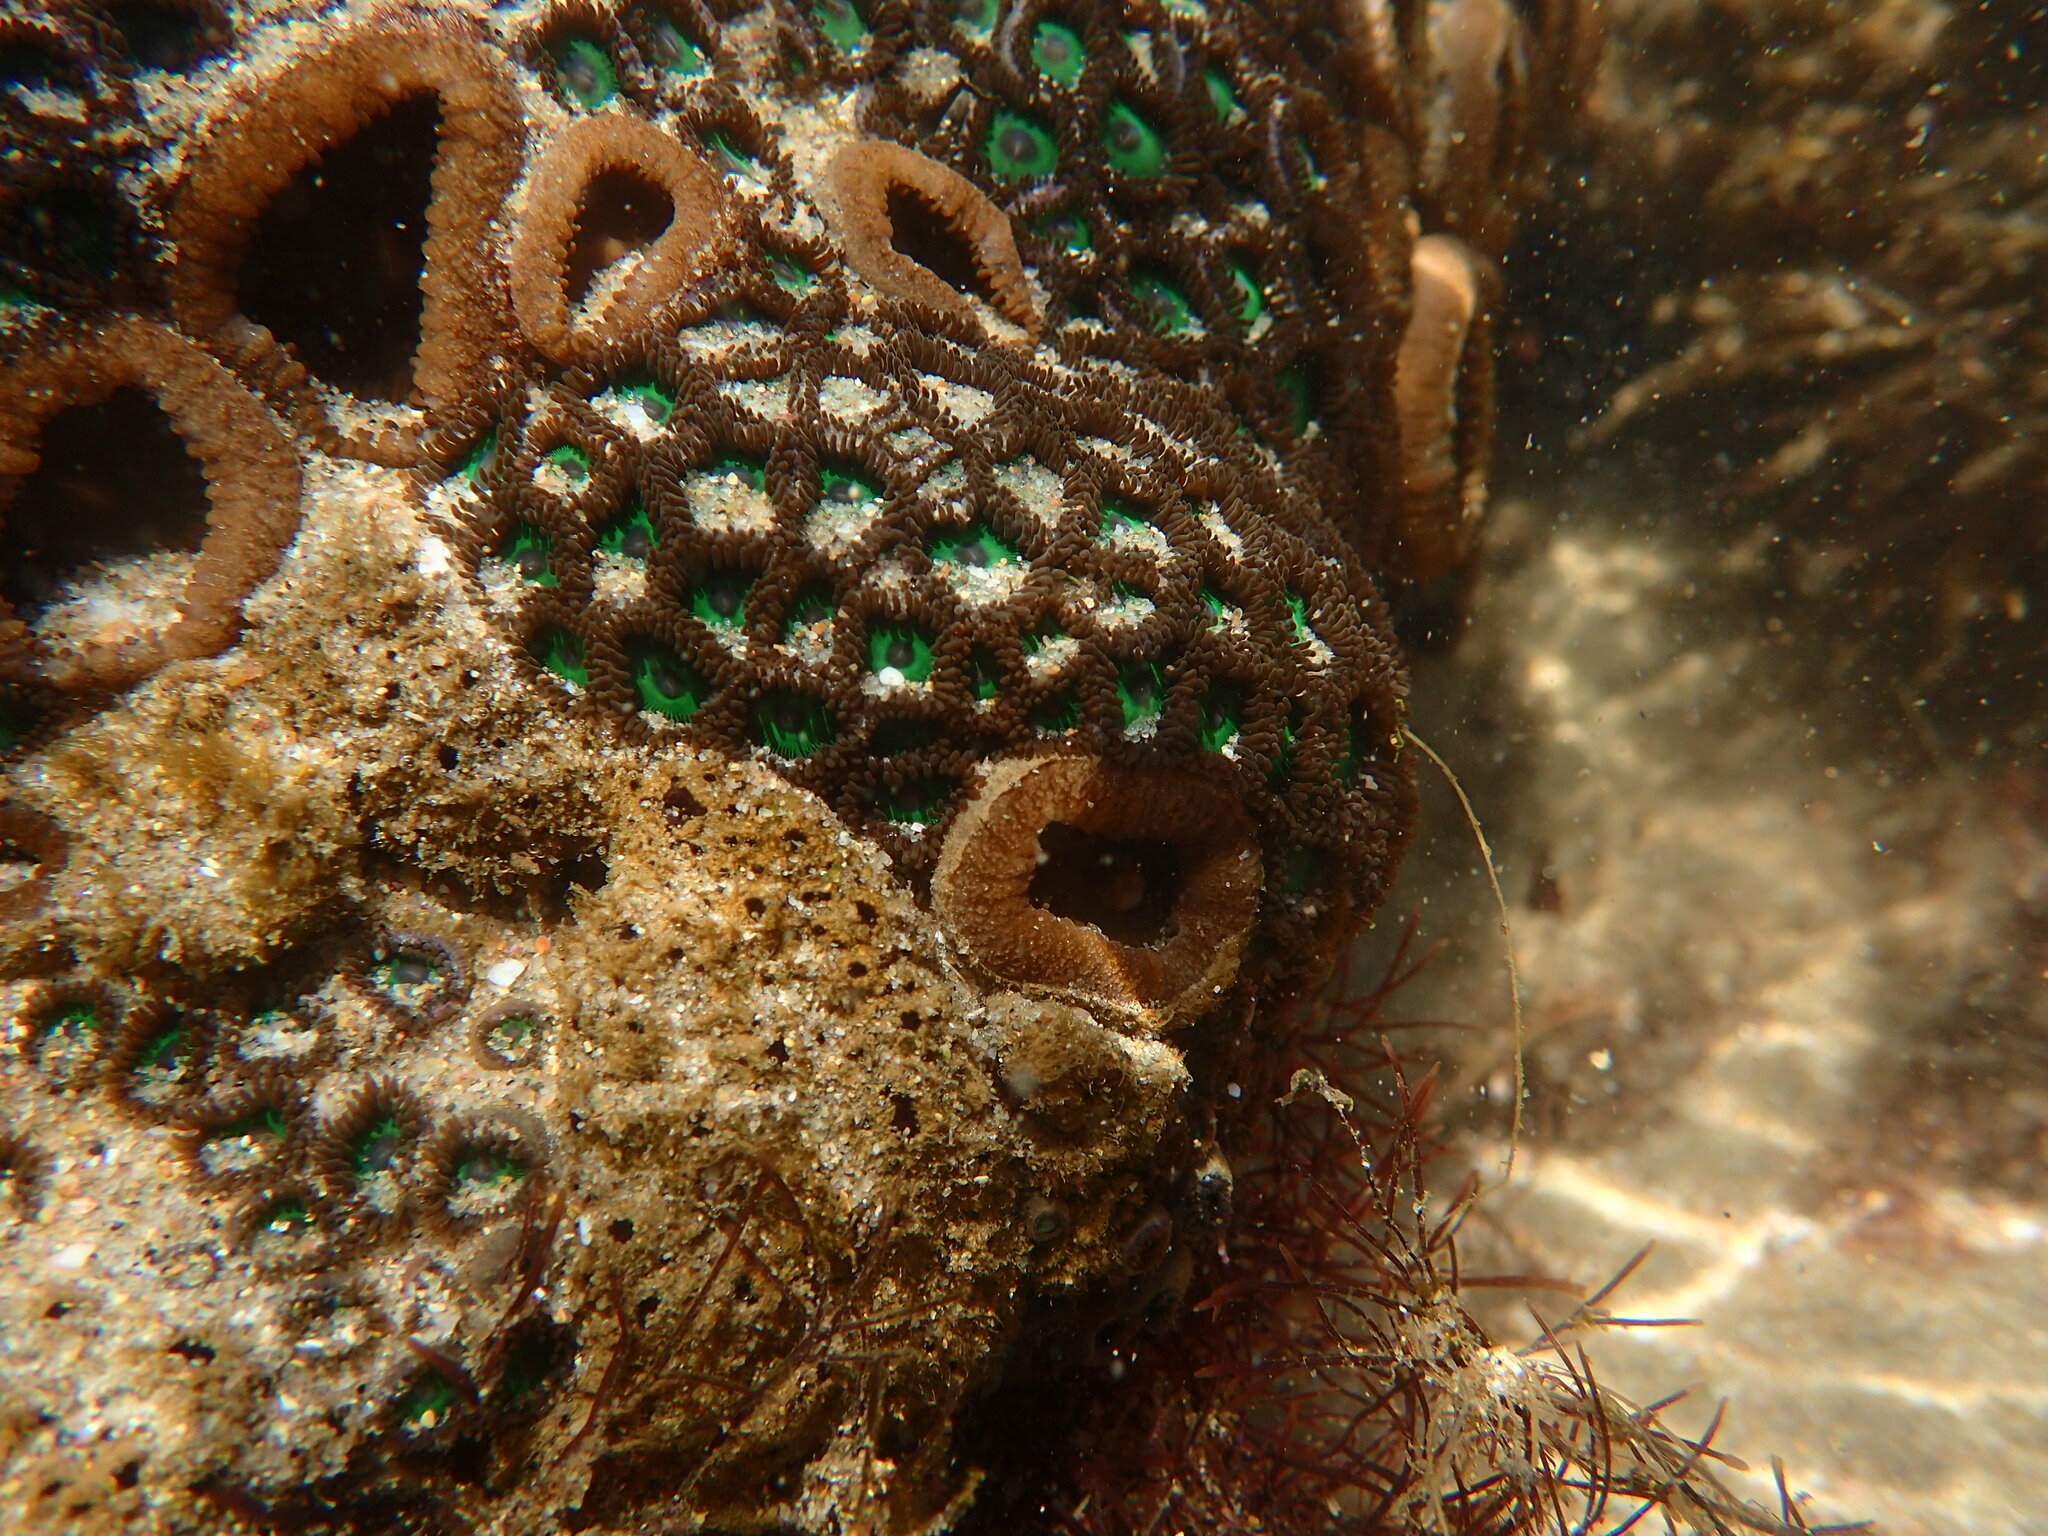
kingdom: Animalia
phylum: Cnidaria
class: Anthozoa
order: Zoantharia
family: Zoanthidae
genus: Zoanthus
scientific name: Zoanthus sansibaricus
